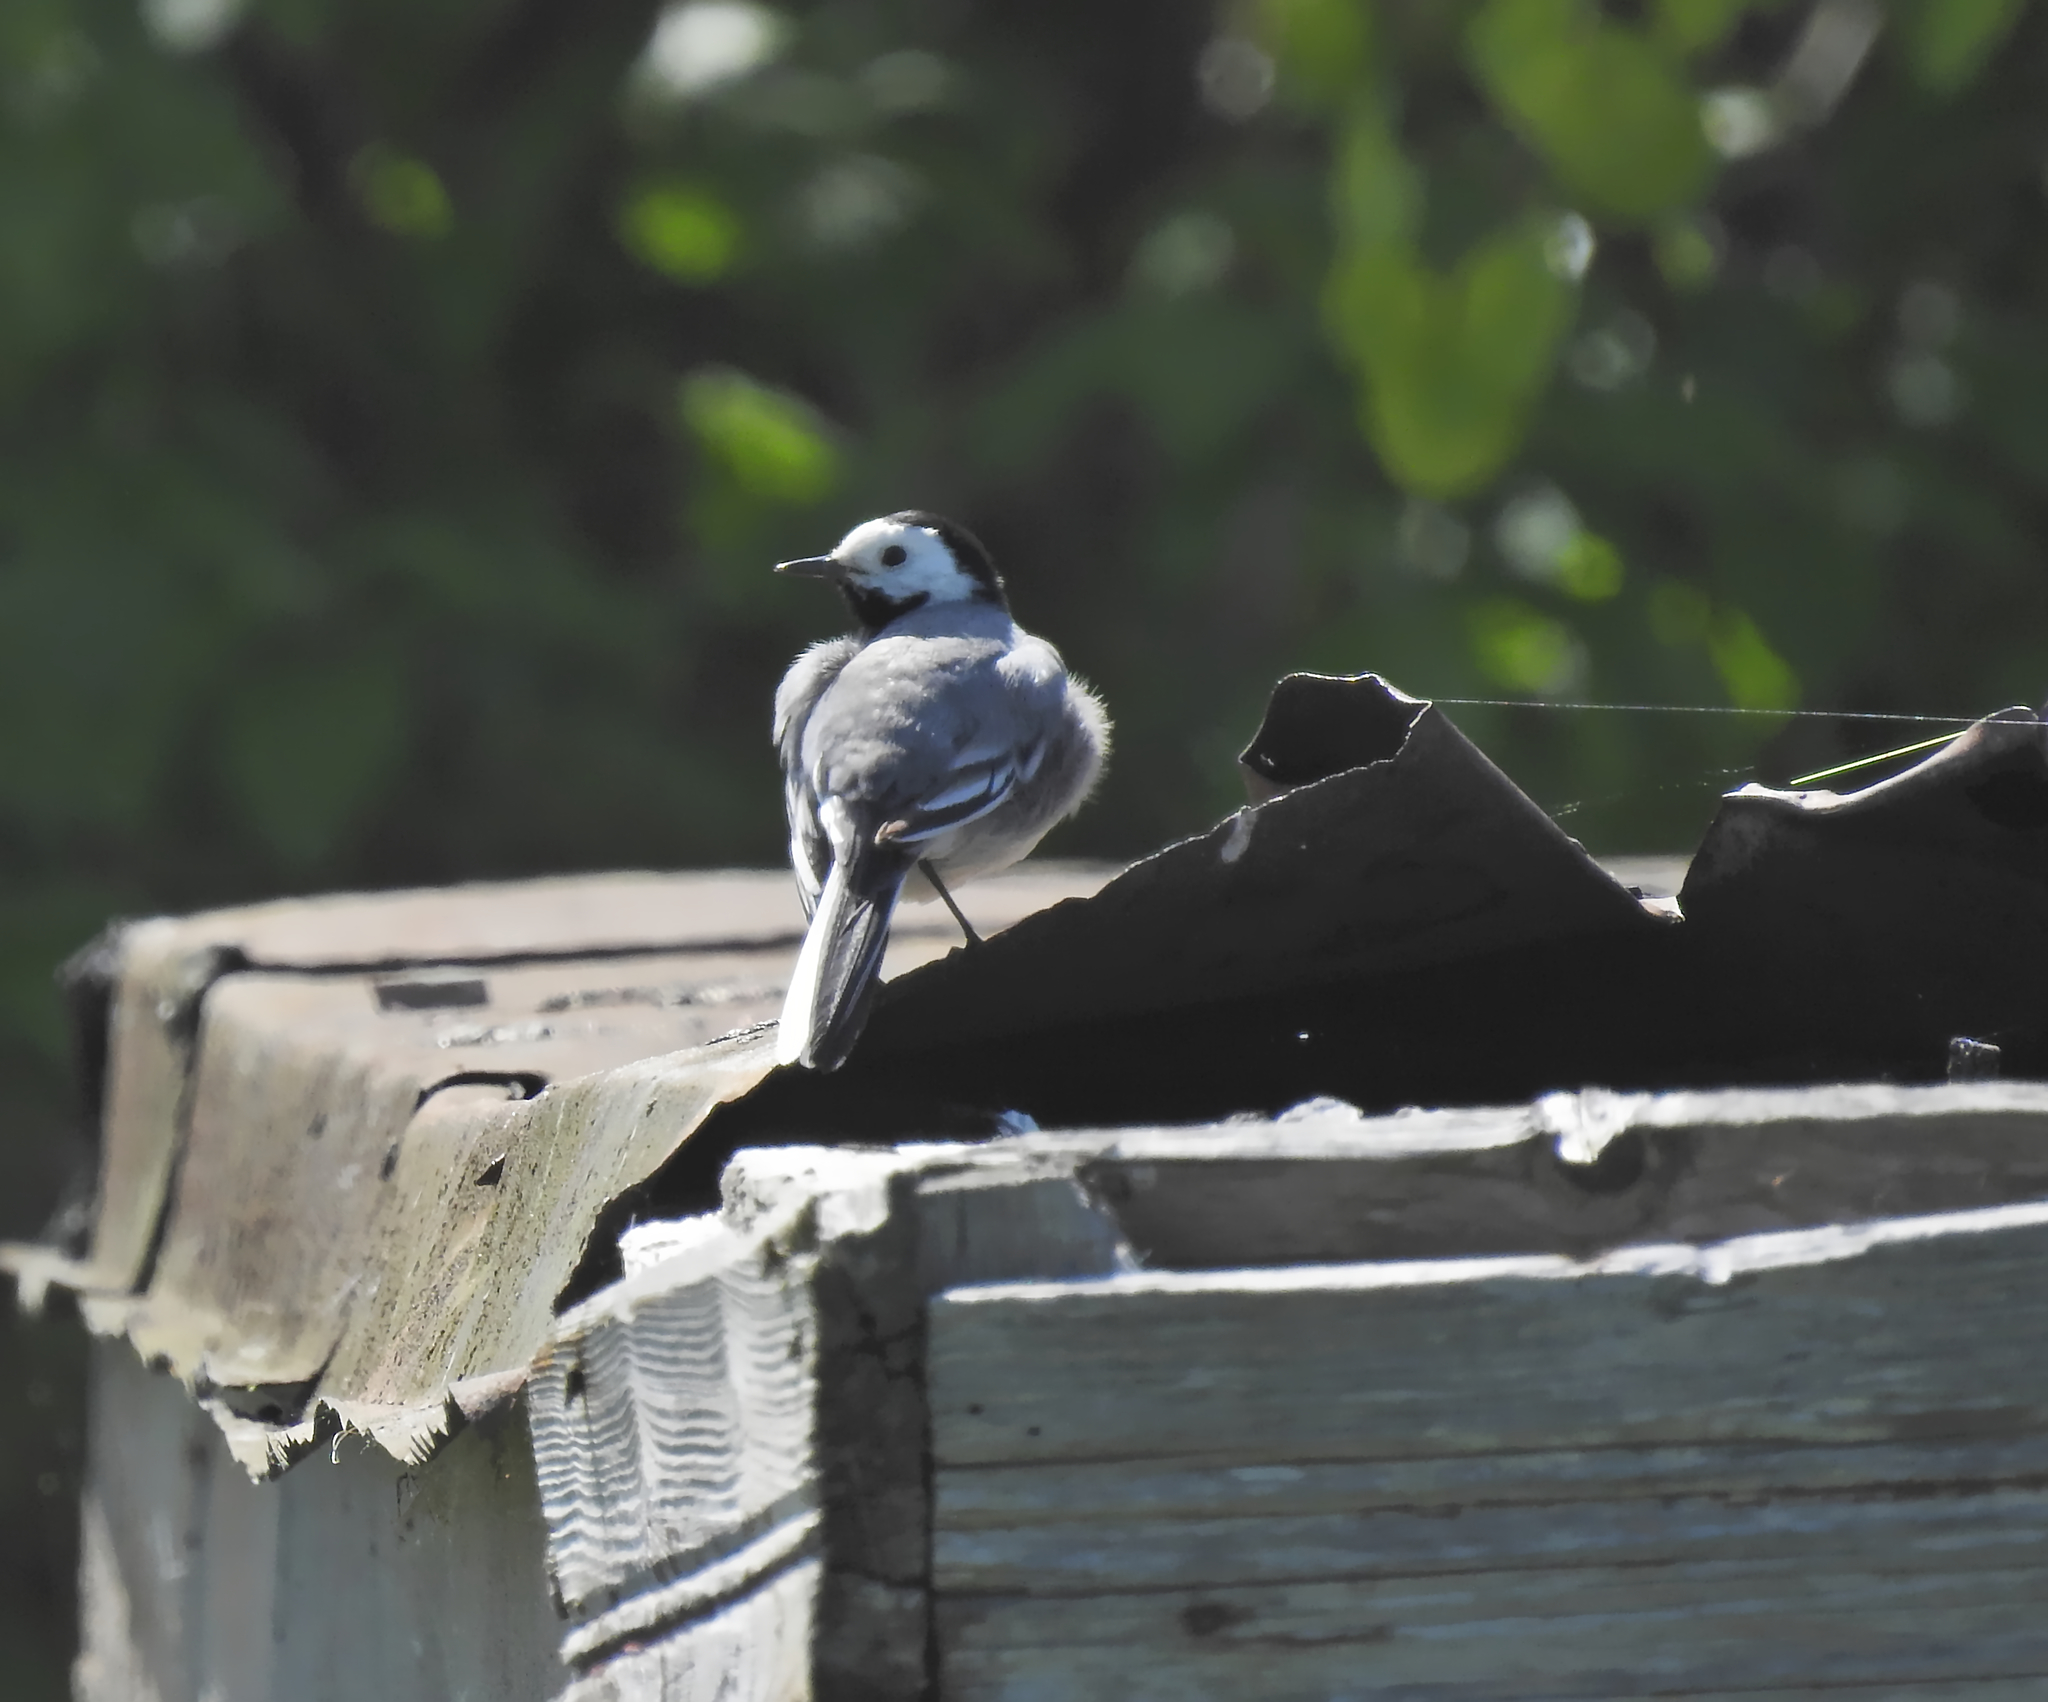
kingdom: Animalia
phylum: Chordata
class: Aves
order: Passeriformes
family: Motacillidae
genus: Motacilla
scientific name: Motacilla alba
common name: White wagtail
